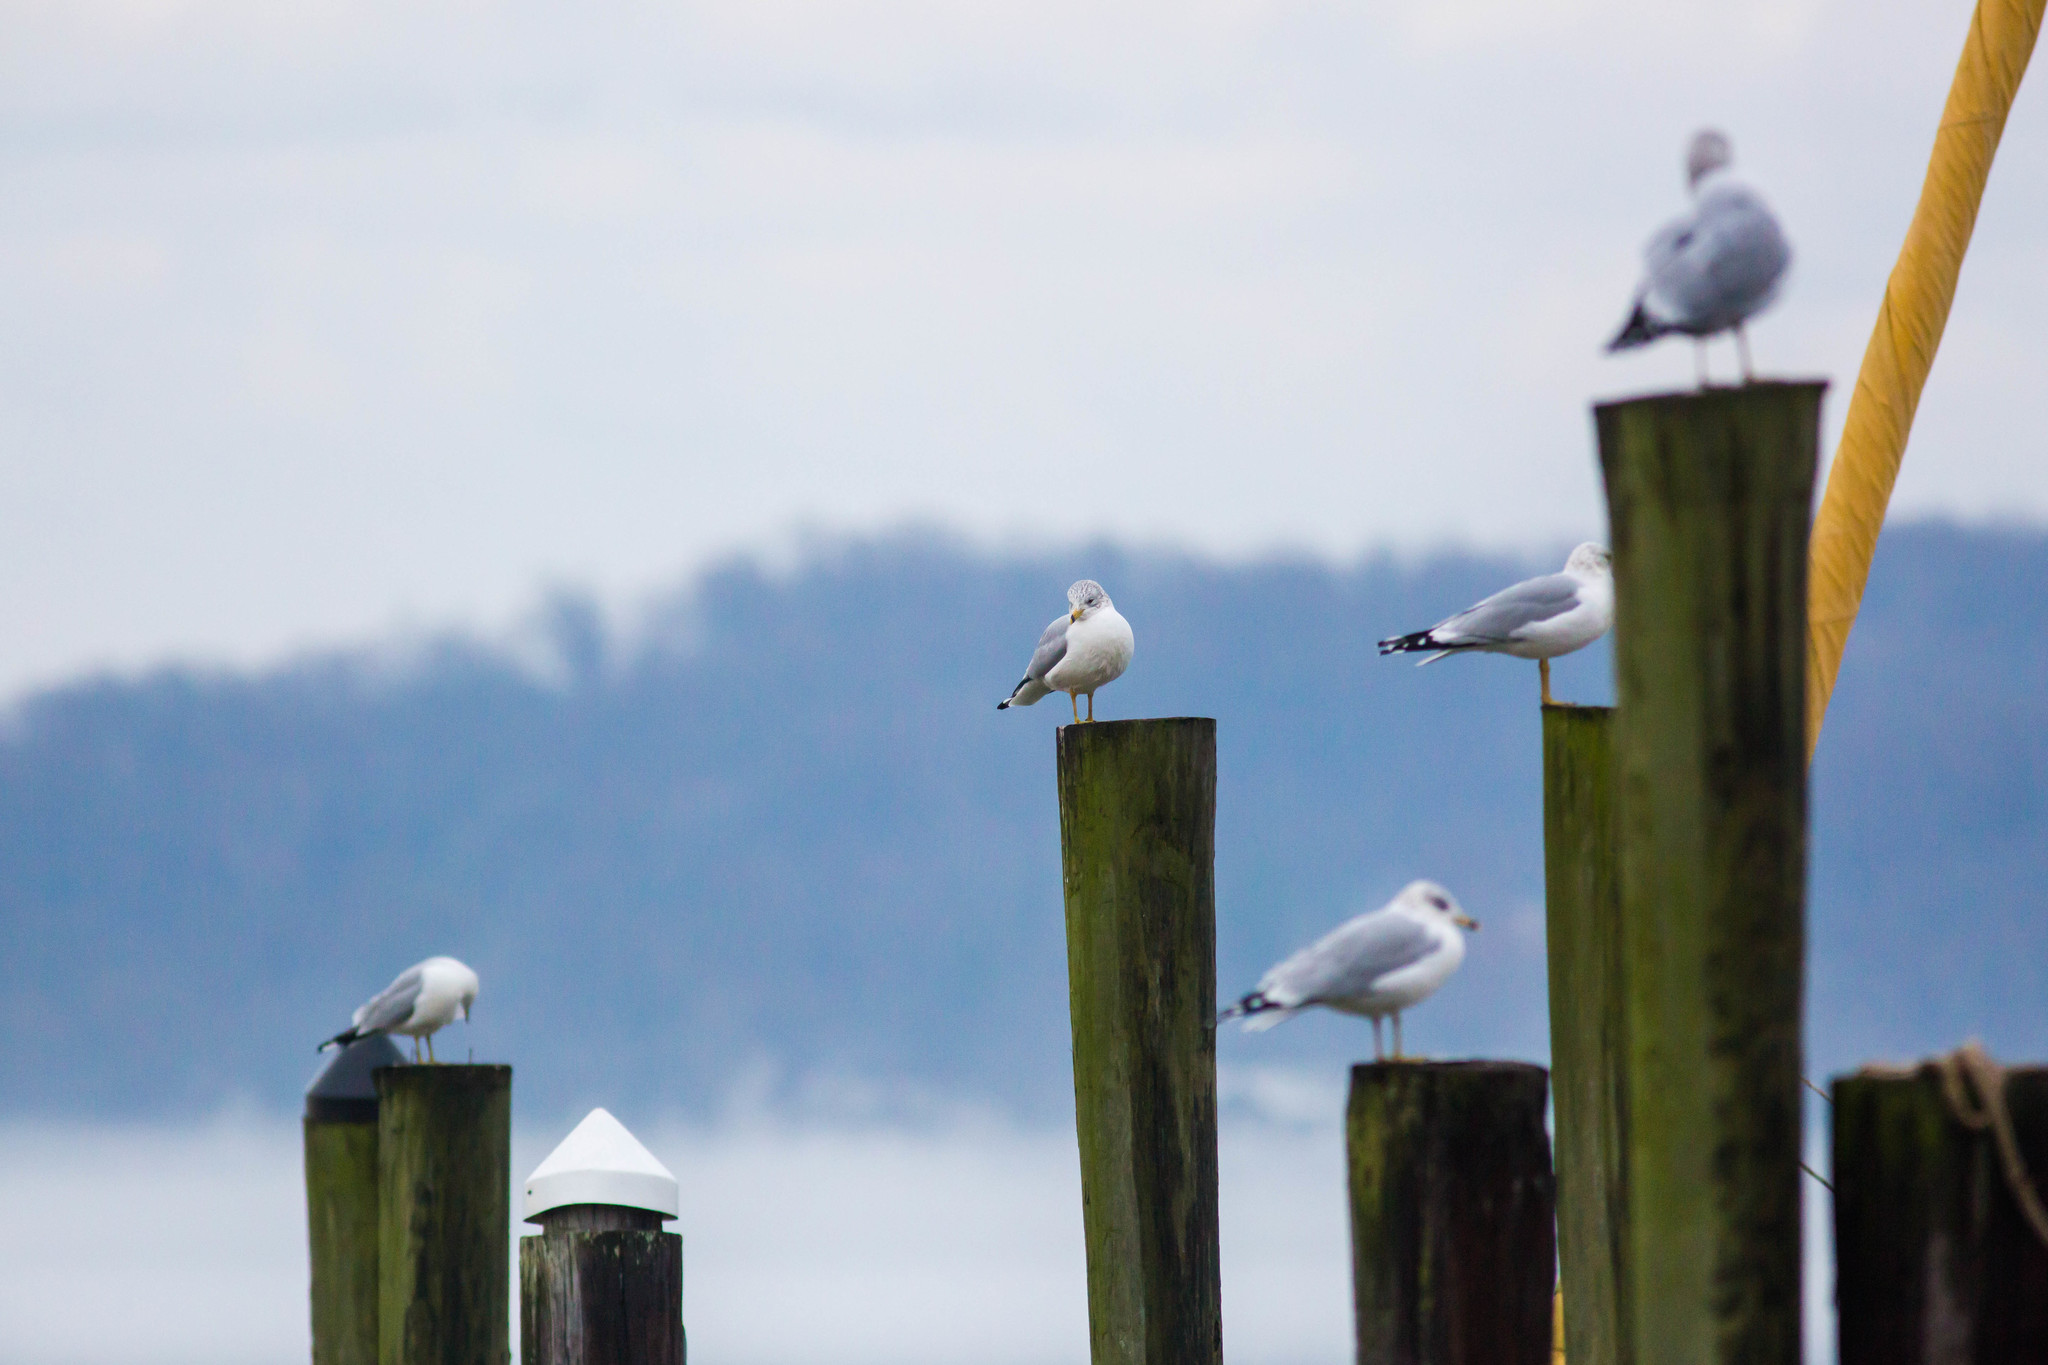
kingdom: Animalia
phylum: Chordata
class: Aves
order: Charadriiformes
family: Laridae
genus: Larus
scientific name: Larus delawarensis
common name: Ring-billed gull
